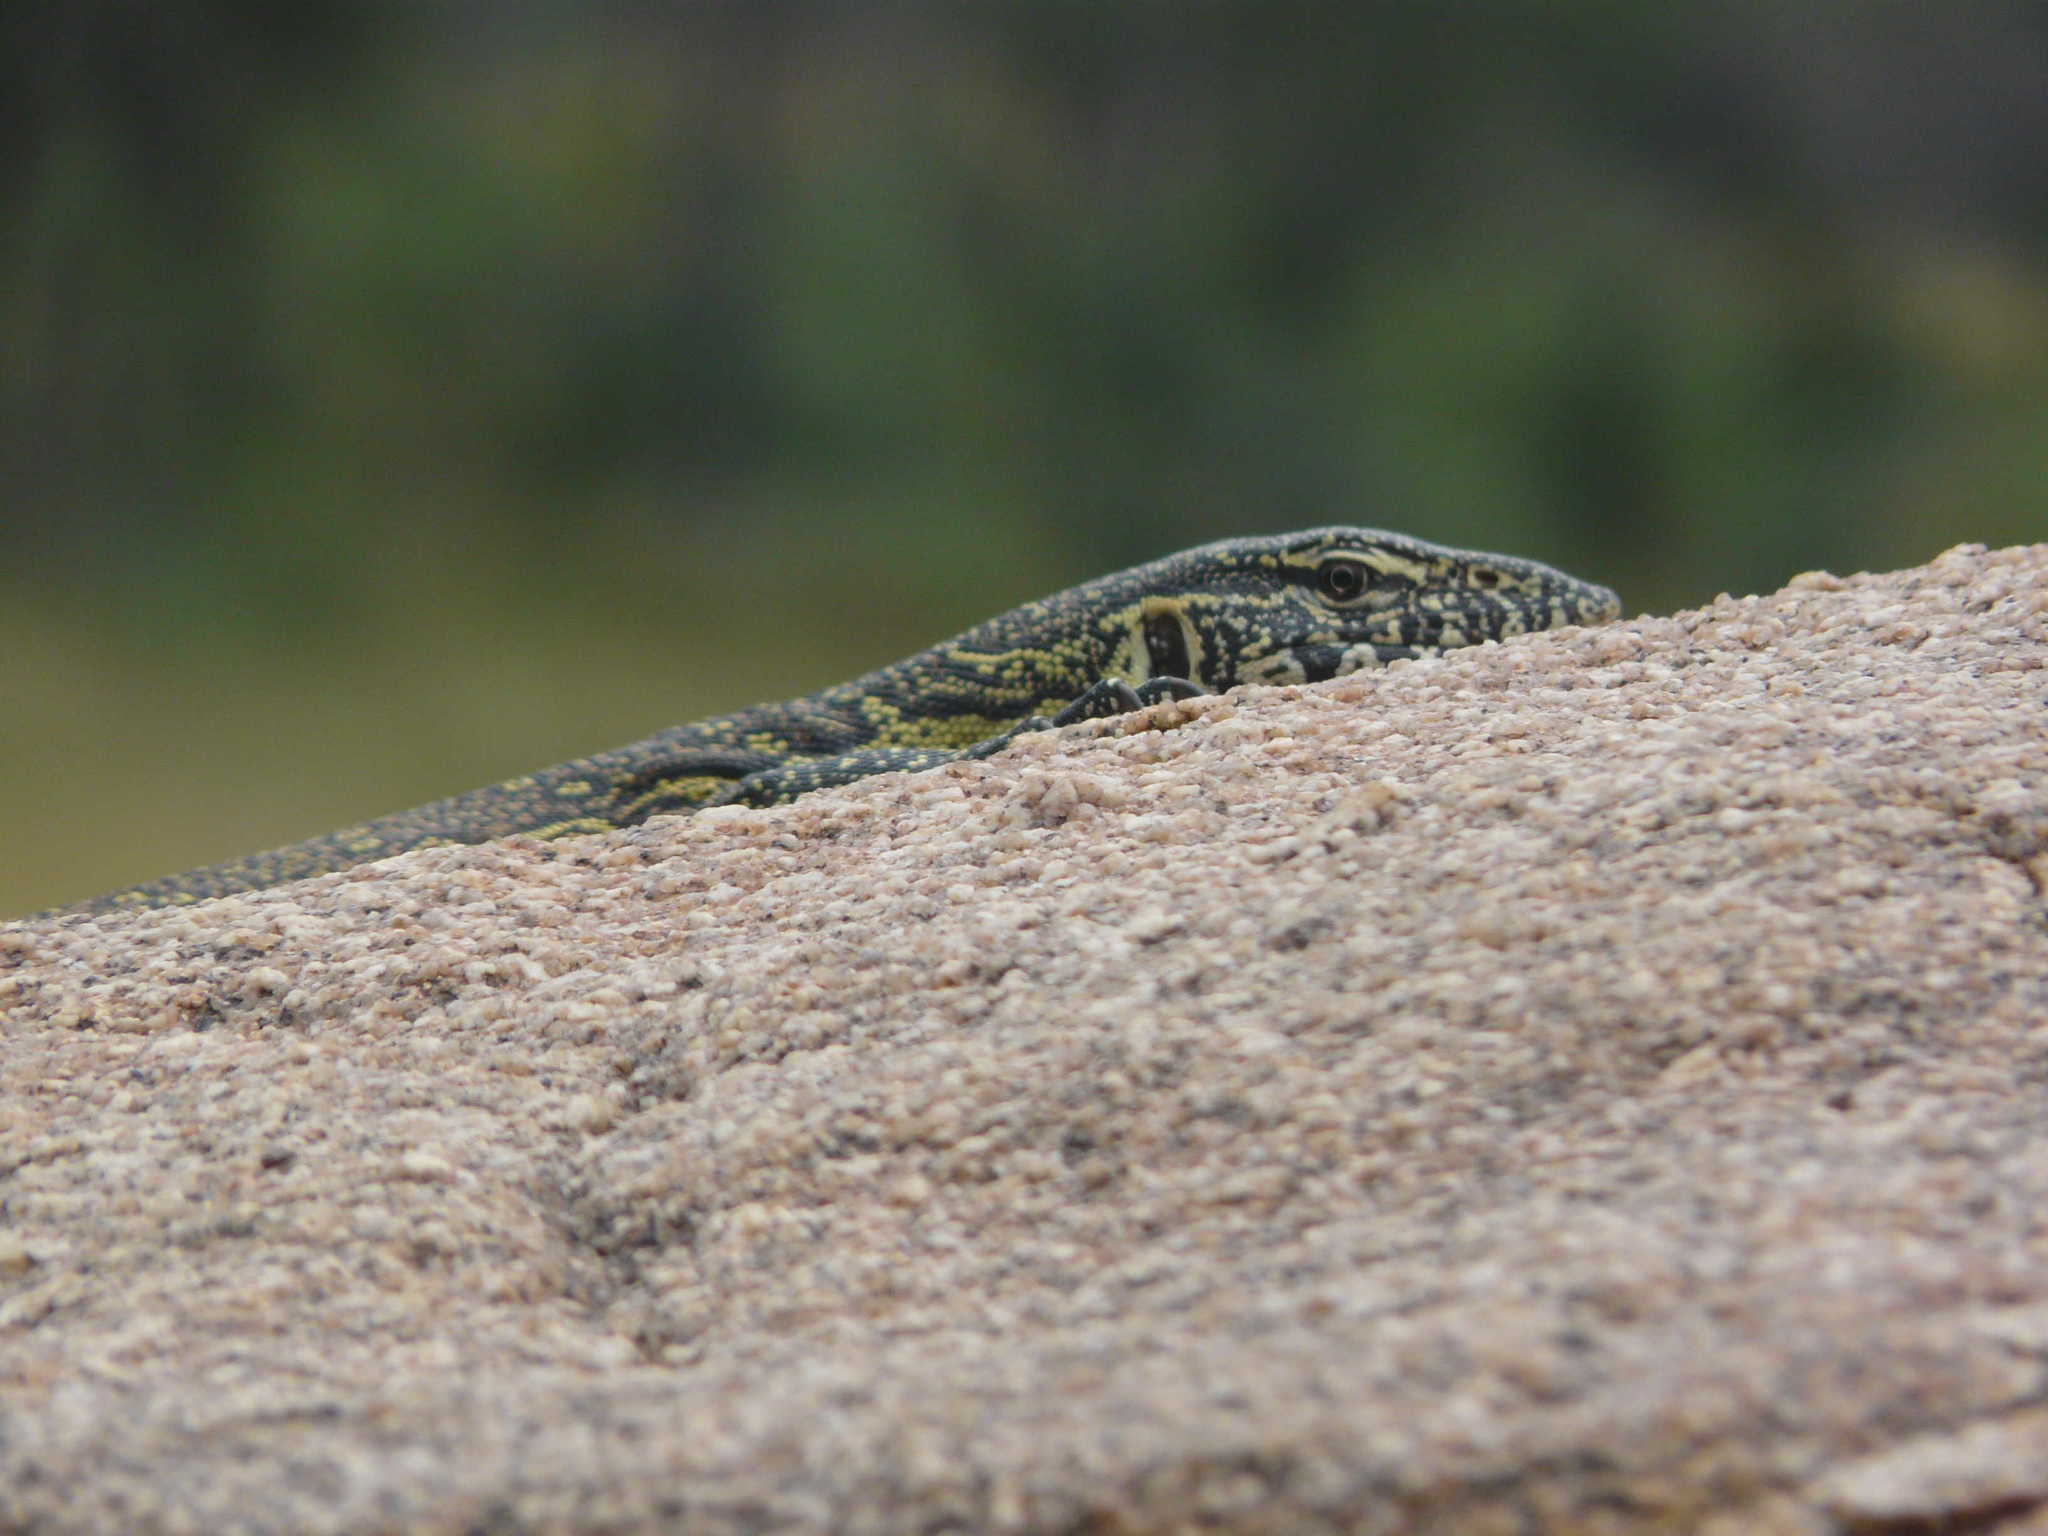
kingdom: Animalia
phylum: Chordata
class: Squamata
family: Varanidae
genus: Varanus
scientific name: Varanus niloticus
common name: Nile monitor
